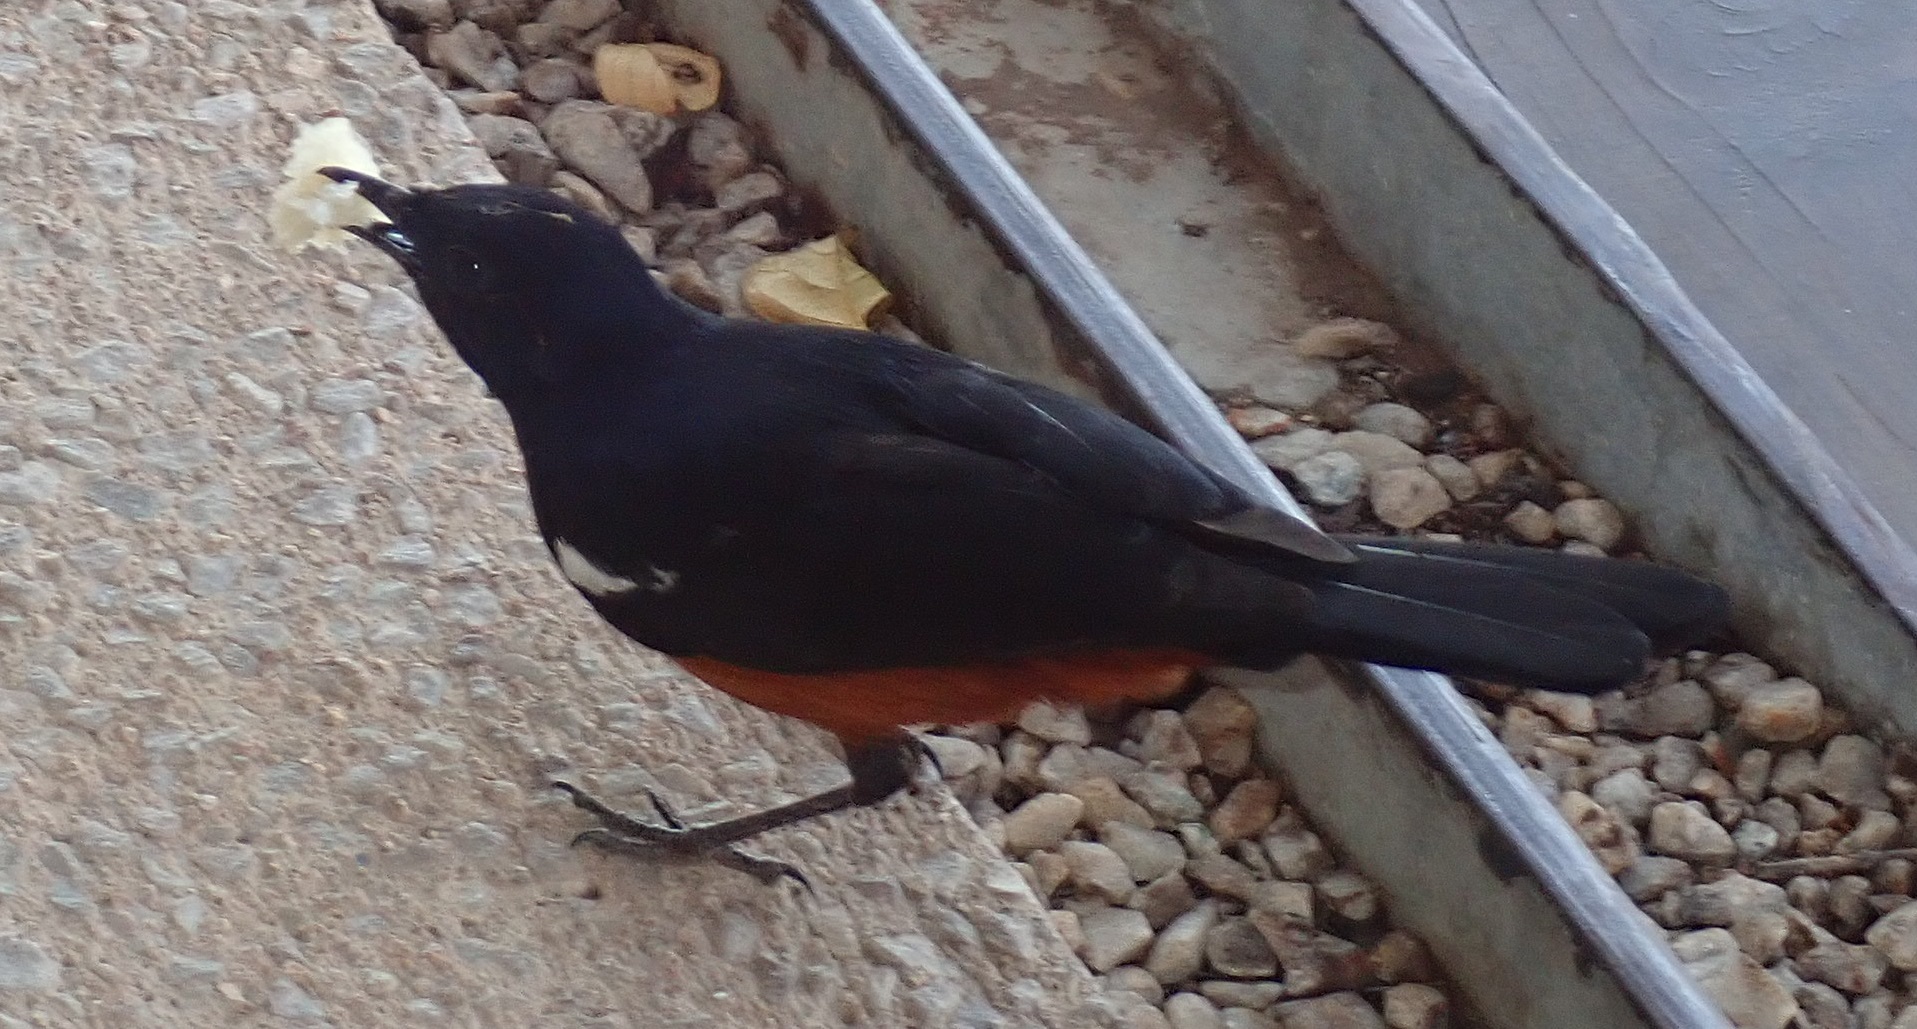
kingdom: Animalia
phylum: Chordata
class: Aves
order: Passeriformes
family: Muscicapidae
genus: Thamnolaea
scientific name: Thamnolaea cinnamomeiventris
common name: Mocking cliff chat
